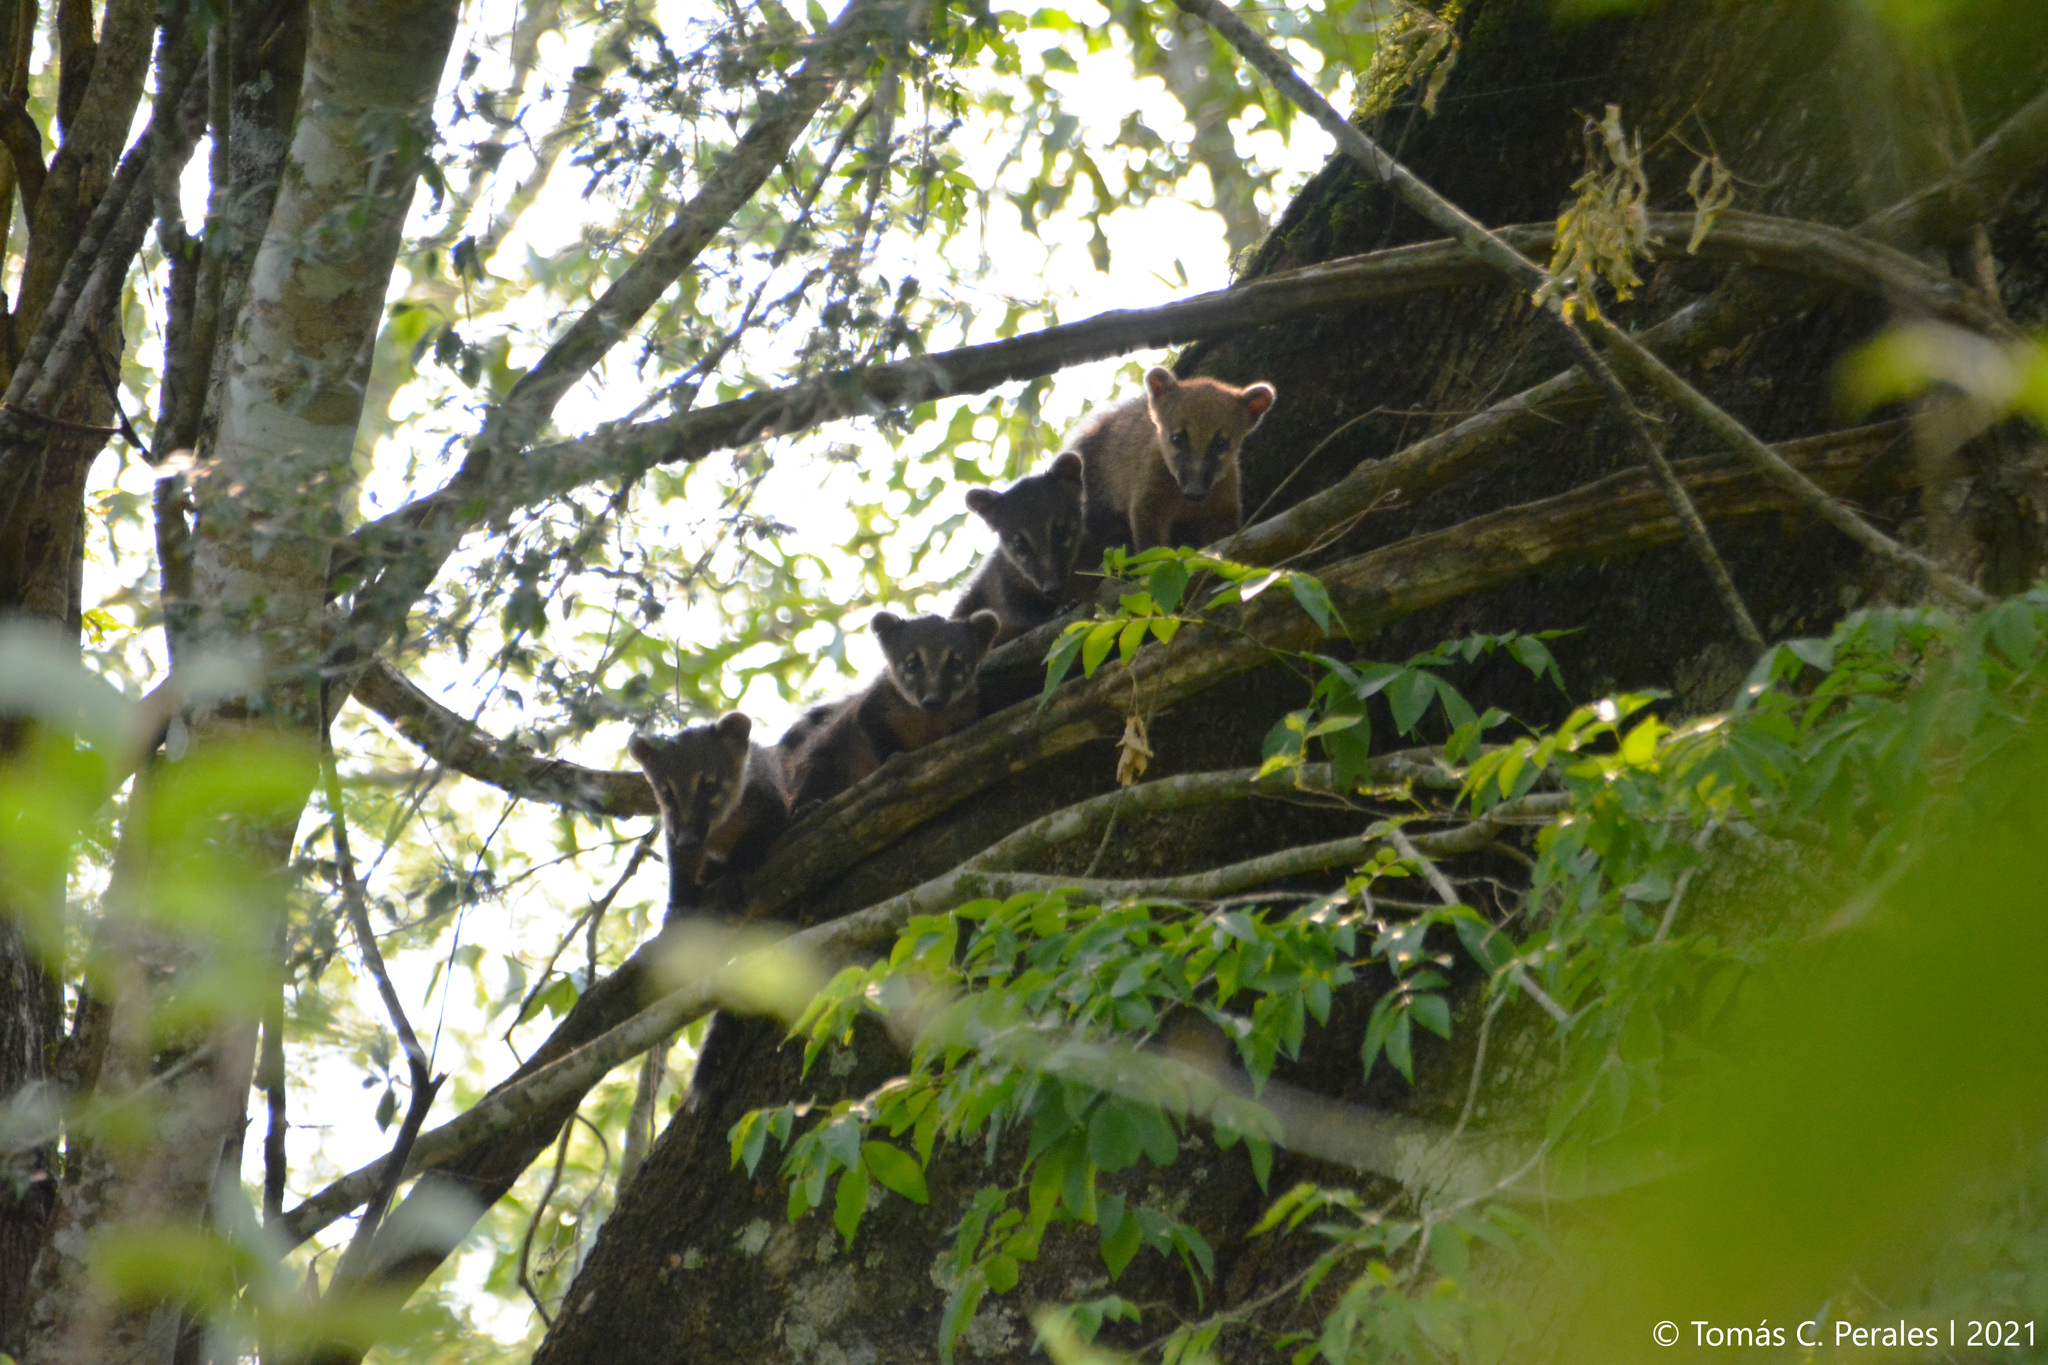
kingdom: Animalia
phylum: Chordata
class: Mammalia
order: Carnivora
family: Procyonidae
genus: Nasua
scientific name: Nasua nasua
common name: South american coati
